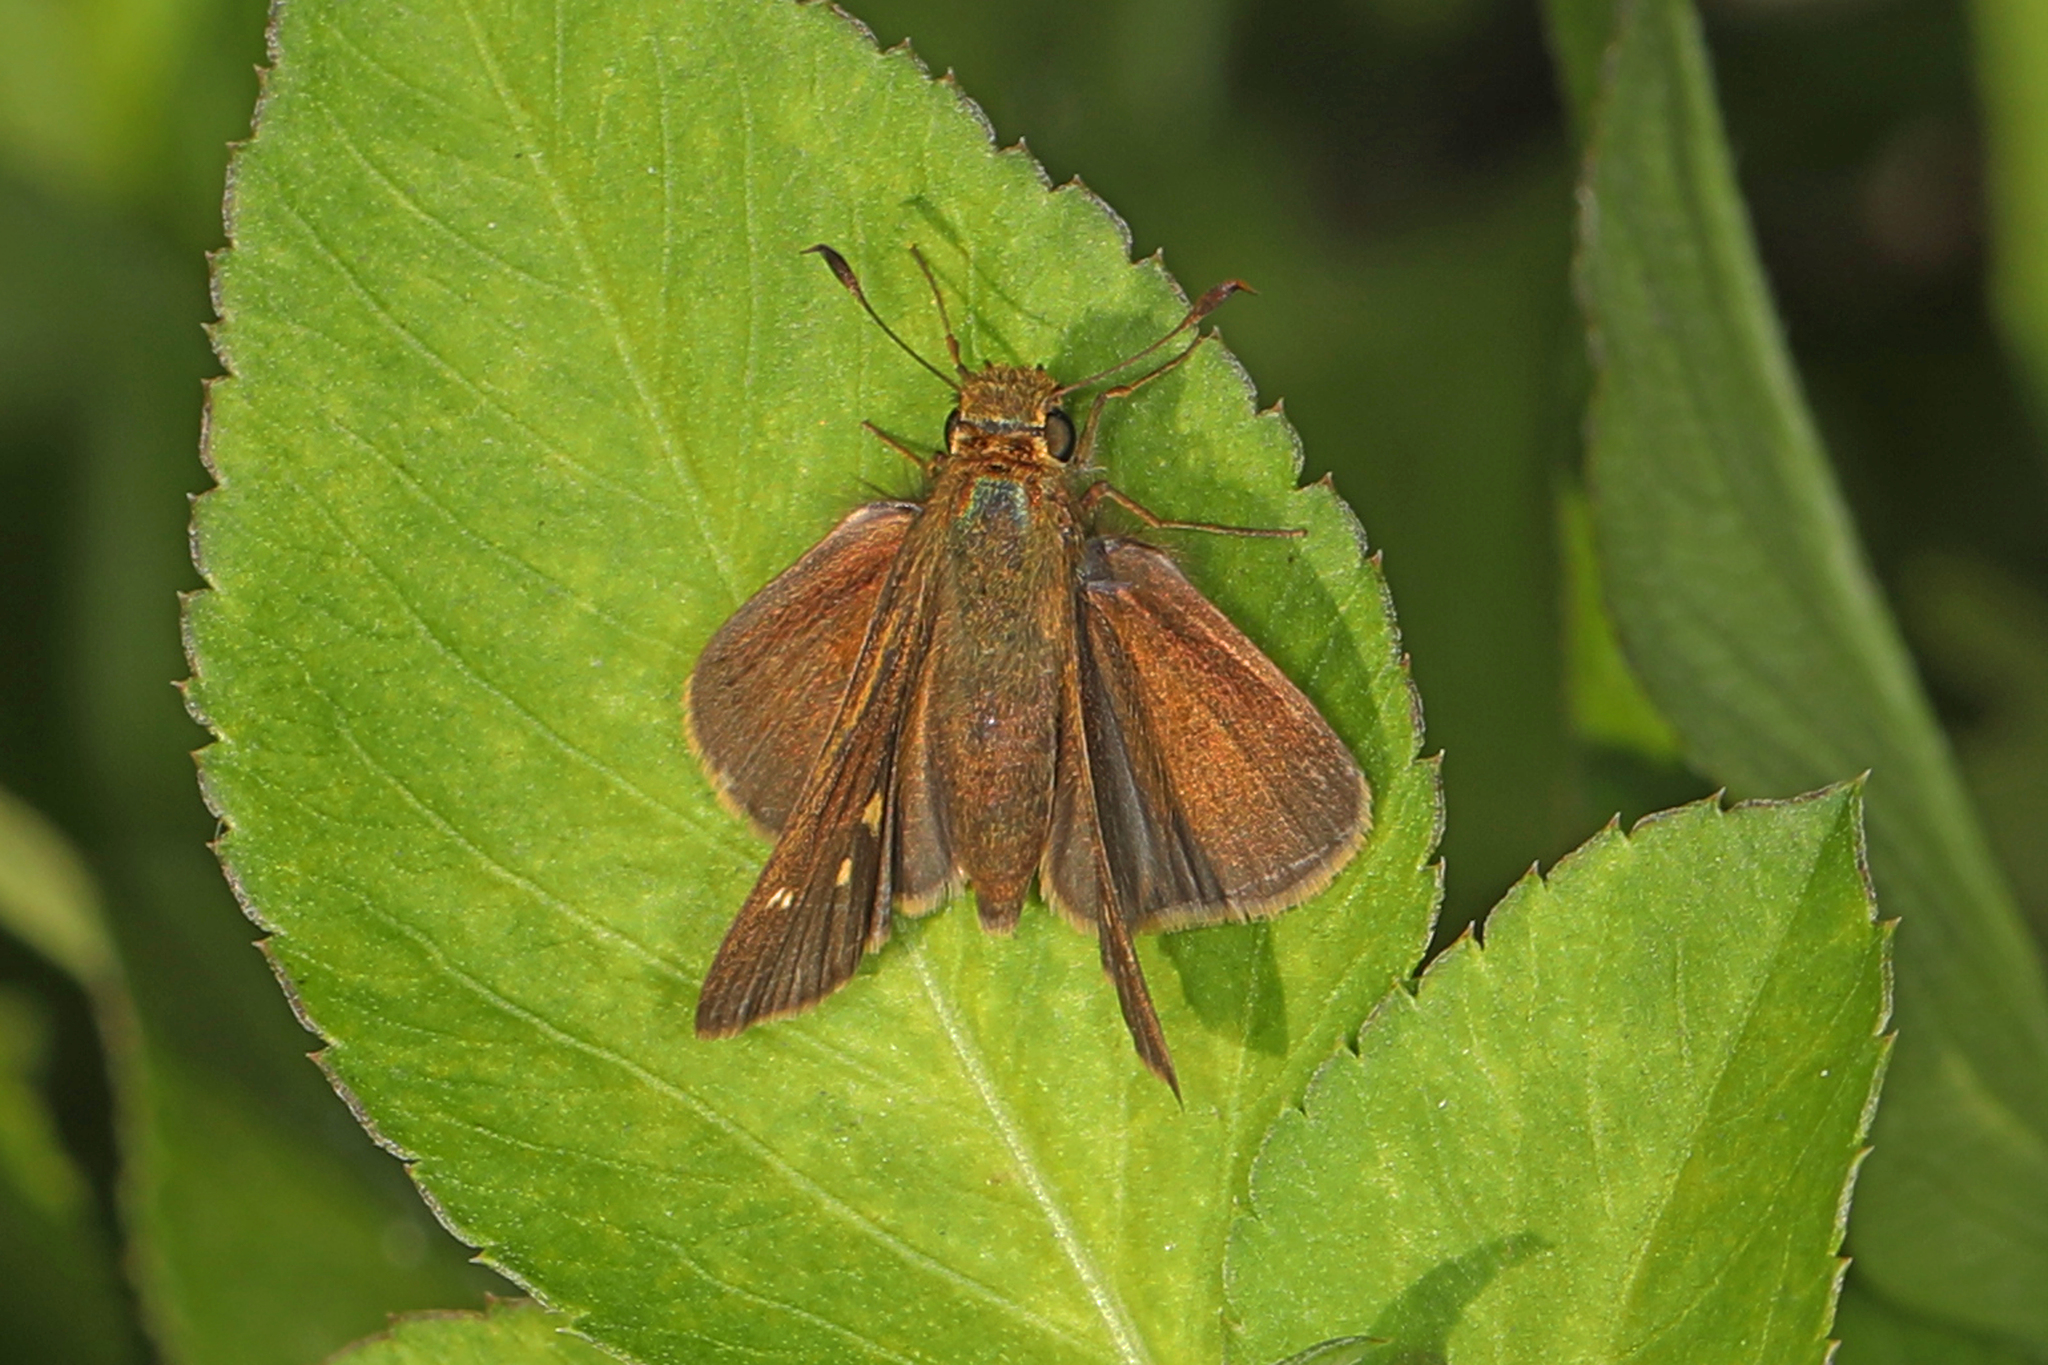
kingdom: Animalia
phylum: Arthropoda
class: Insecta
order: Lepidoptera
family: Hesperiidae
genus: Panoquina
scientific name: Panoquina ocola
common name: Ocola skipper
